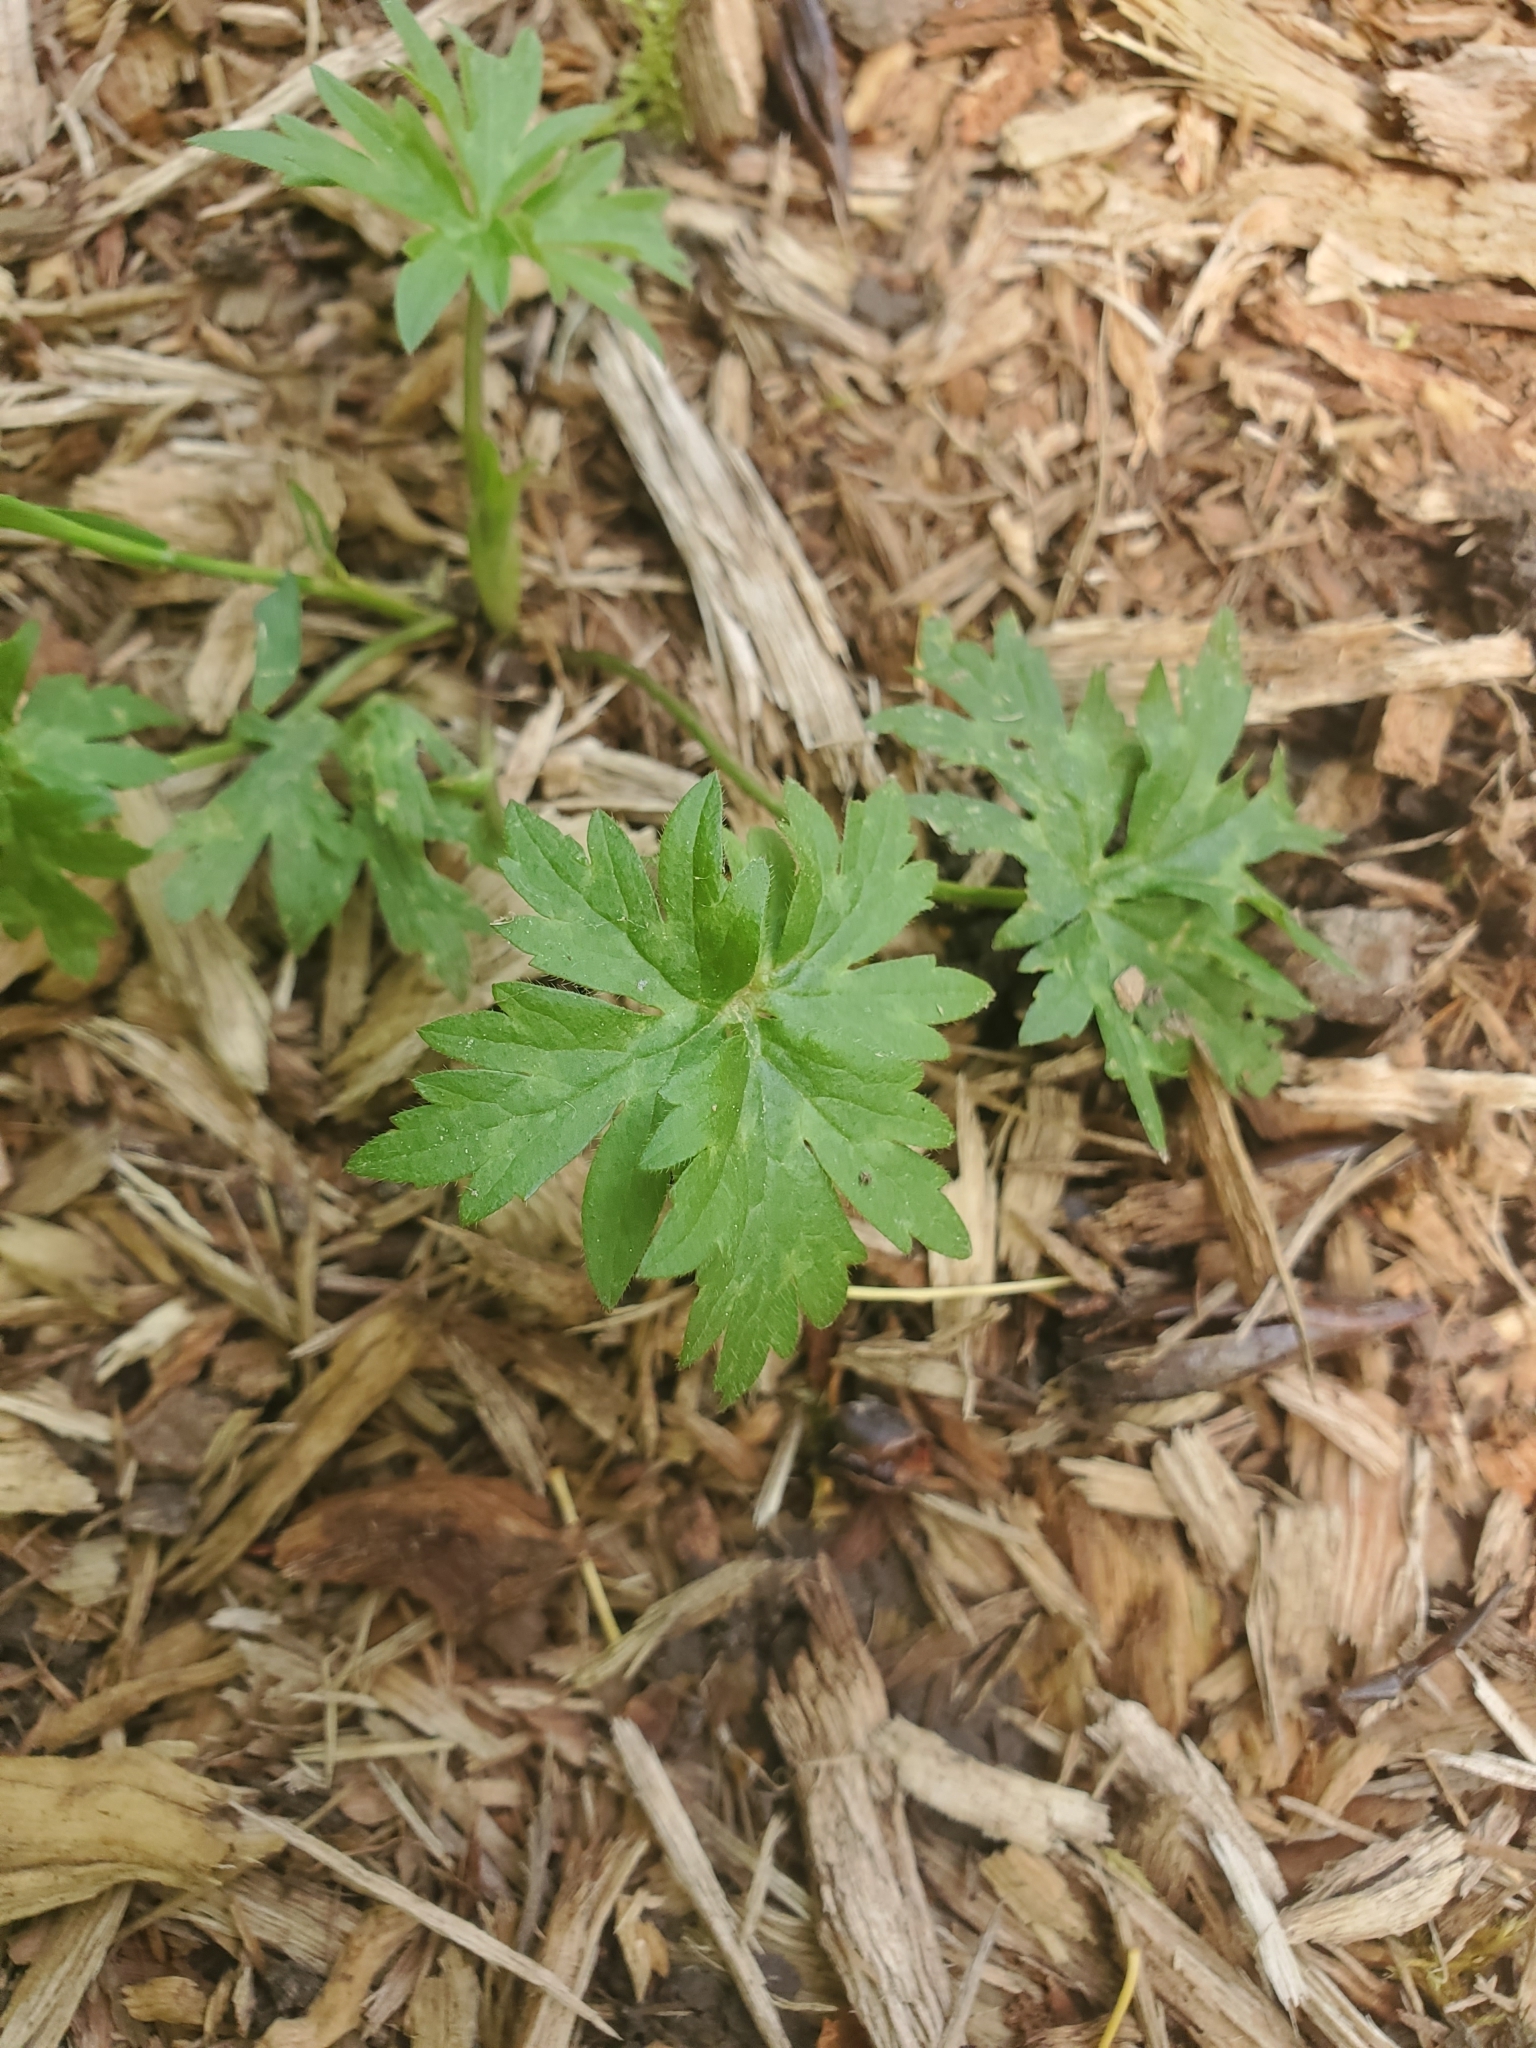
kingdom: Plantae
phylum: Tracheophyta
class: Magnoliopsida
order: Ranunculales
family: Ranunculaceae
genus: Ranunculus
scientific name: Ranunculus repens
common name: Creeping buttercup
